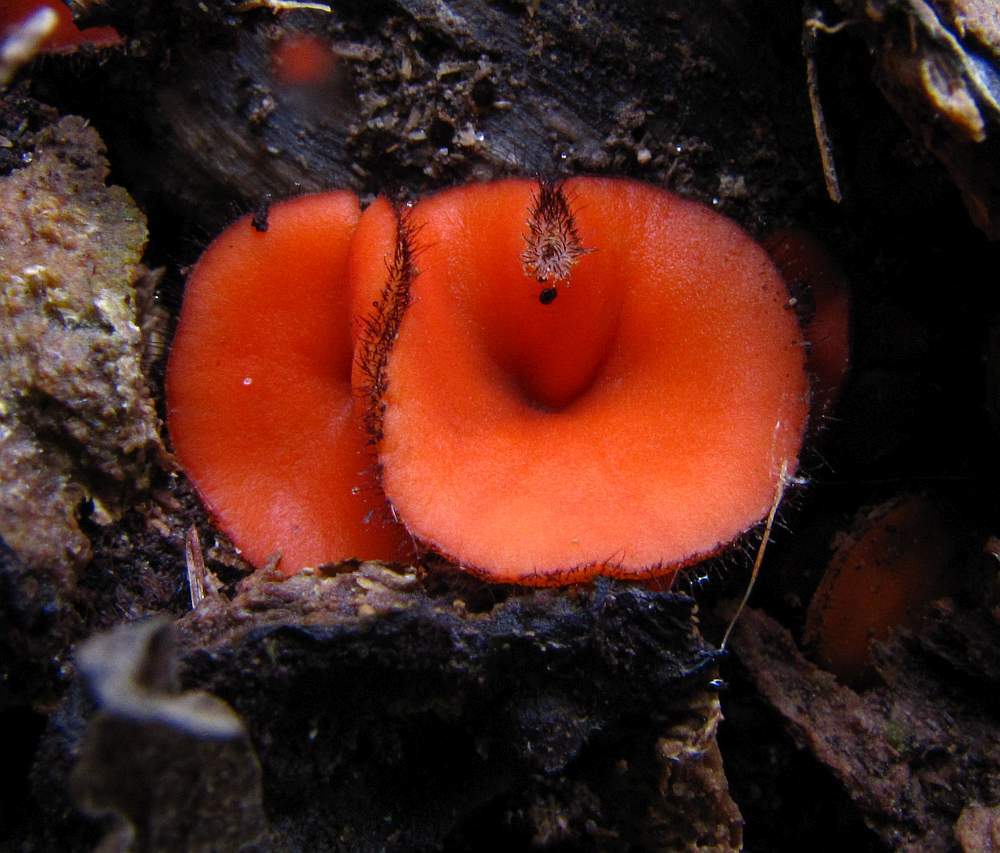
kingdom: Fungi
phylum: Ascomycota
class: Pezizomycetes
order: Pezizales
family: Pyronemataceae
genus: Scutellinia
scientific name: Scutellinia scutellata
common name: Common eyelash
